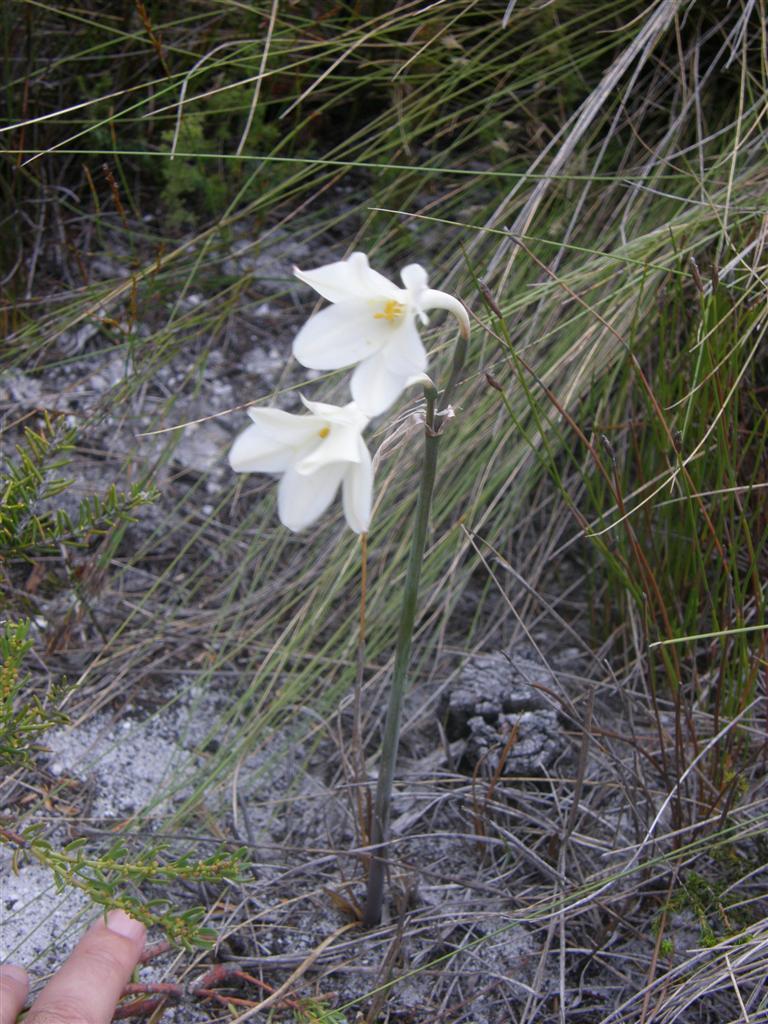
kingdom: Plantae
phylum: Tracheophyta
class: Liliopsida
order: Asparagales
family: Amaryllidaceae
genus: Cyrtanthus
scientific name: Cyrtanthus leucanthus
